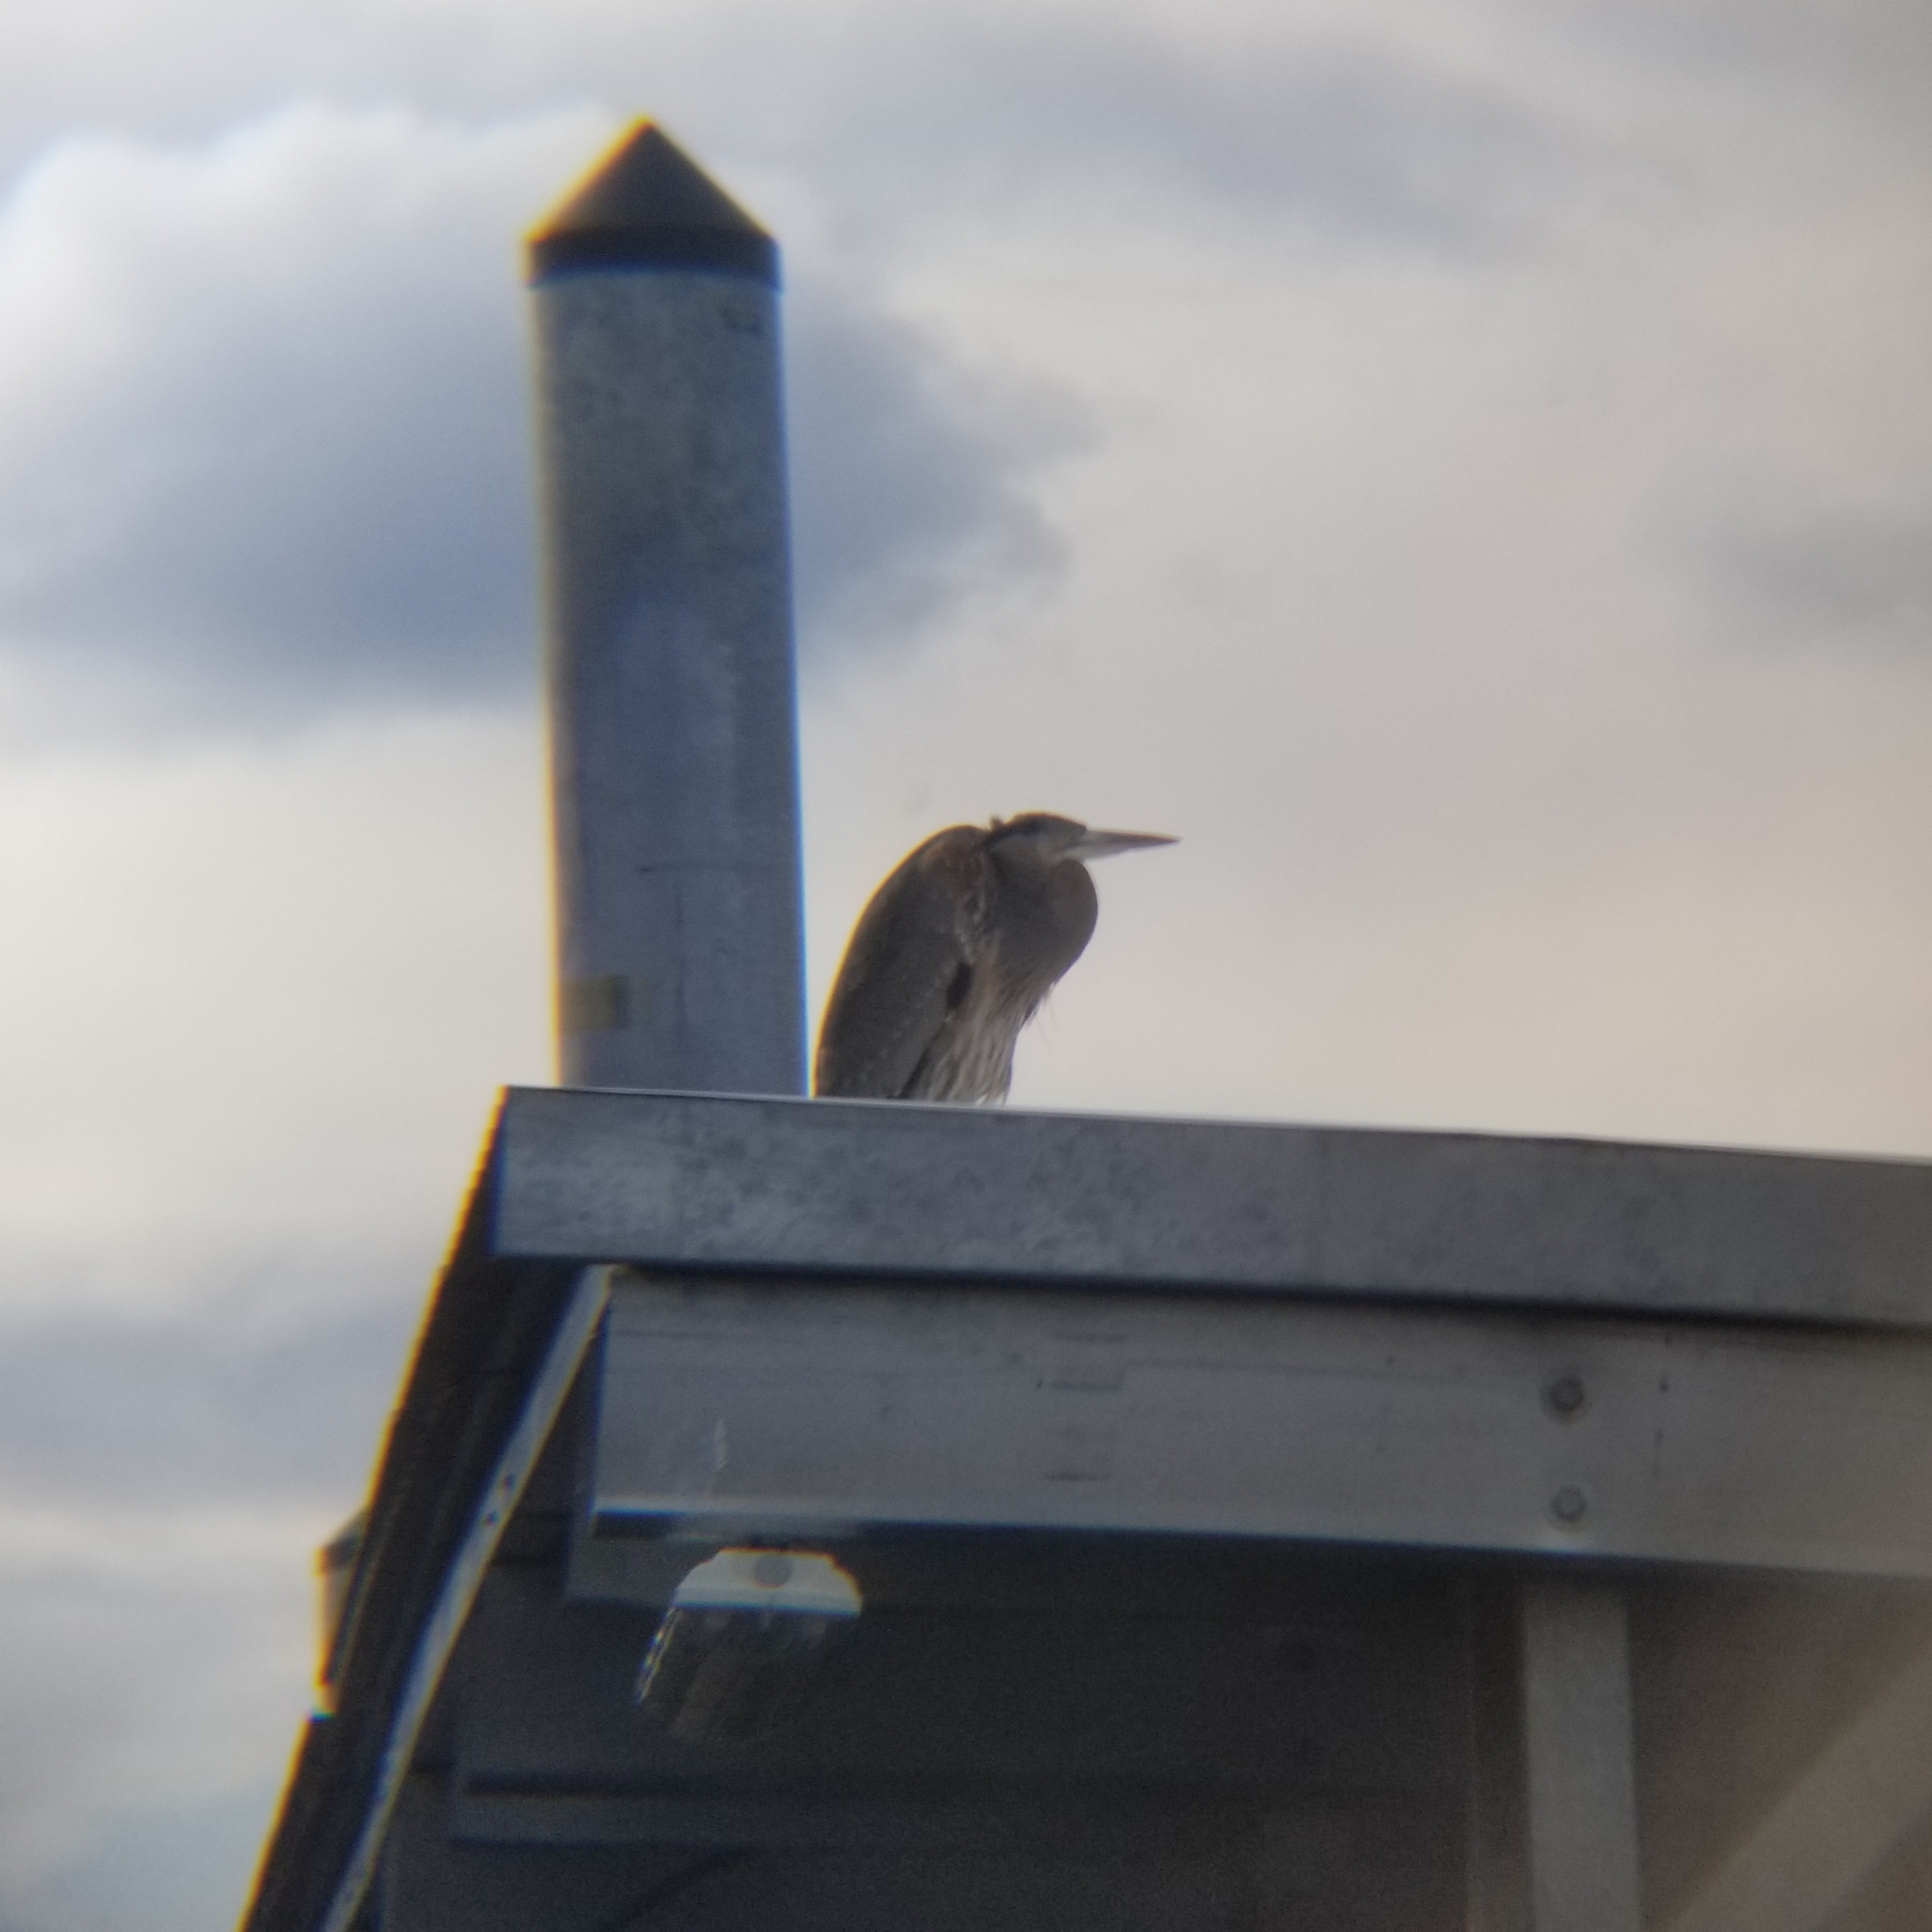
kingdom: Animalia
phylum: Chordata
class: Aves
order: Pelecaniformes
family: Ardeidae
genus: Ardea
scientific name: Ardea herodias
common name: Great blue heron
